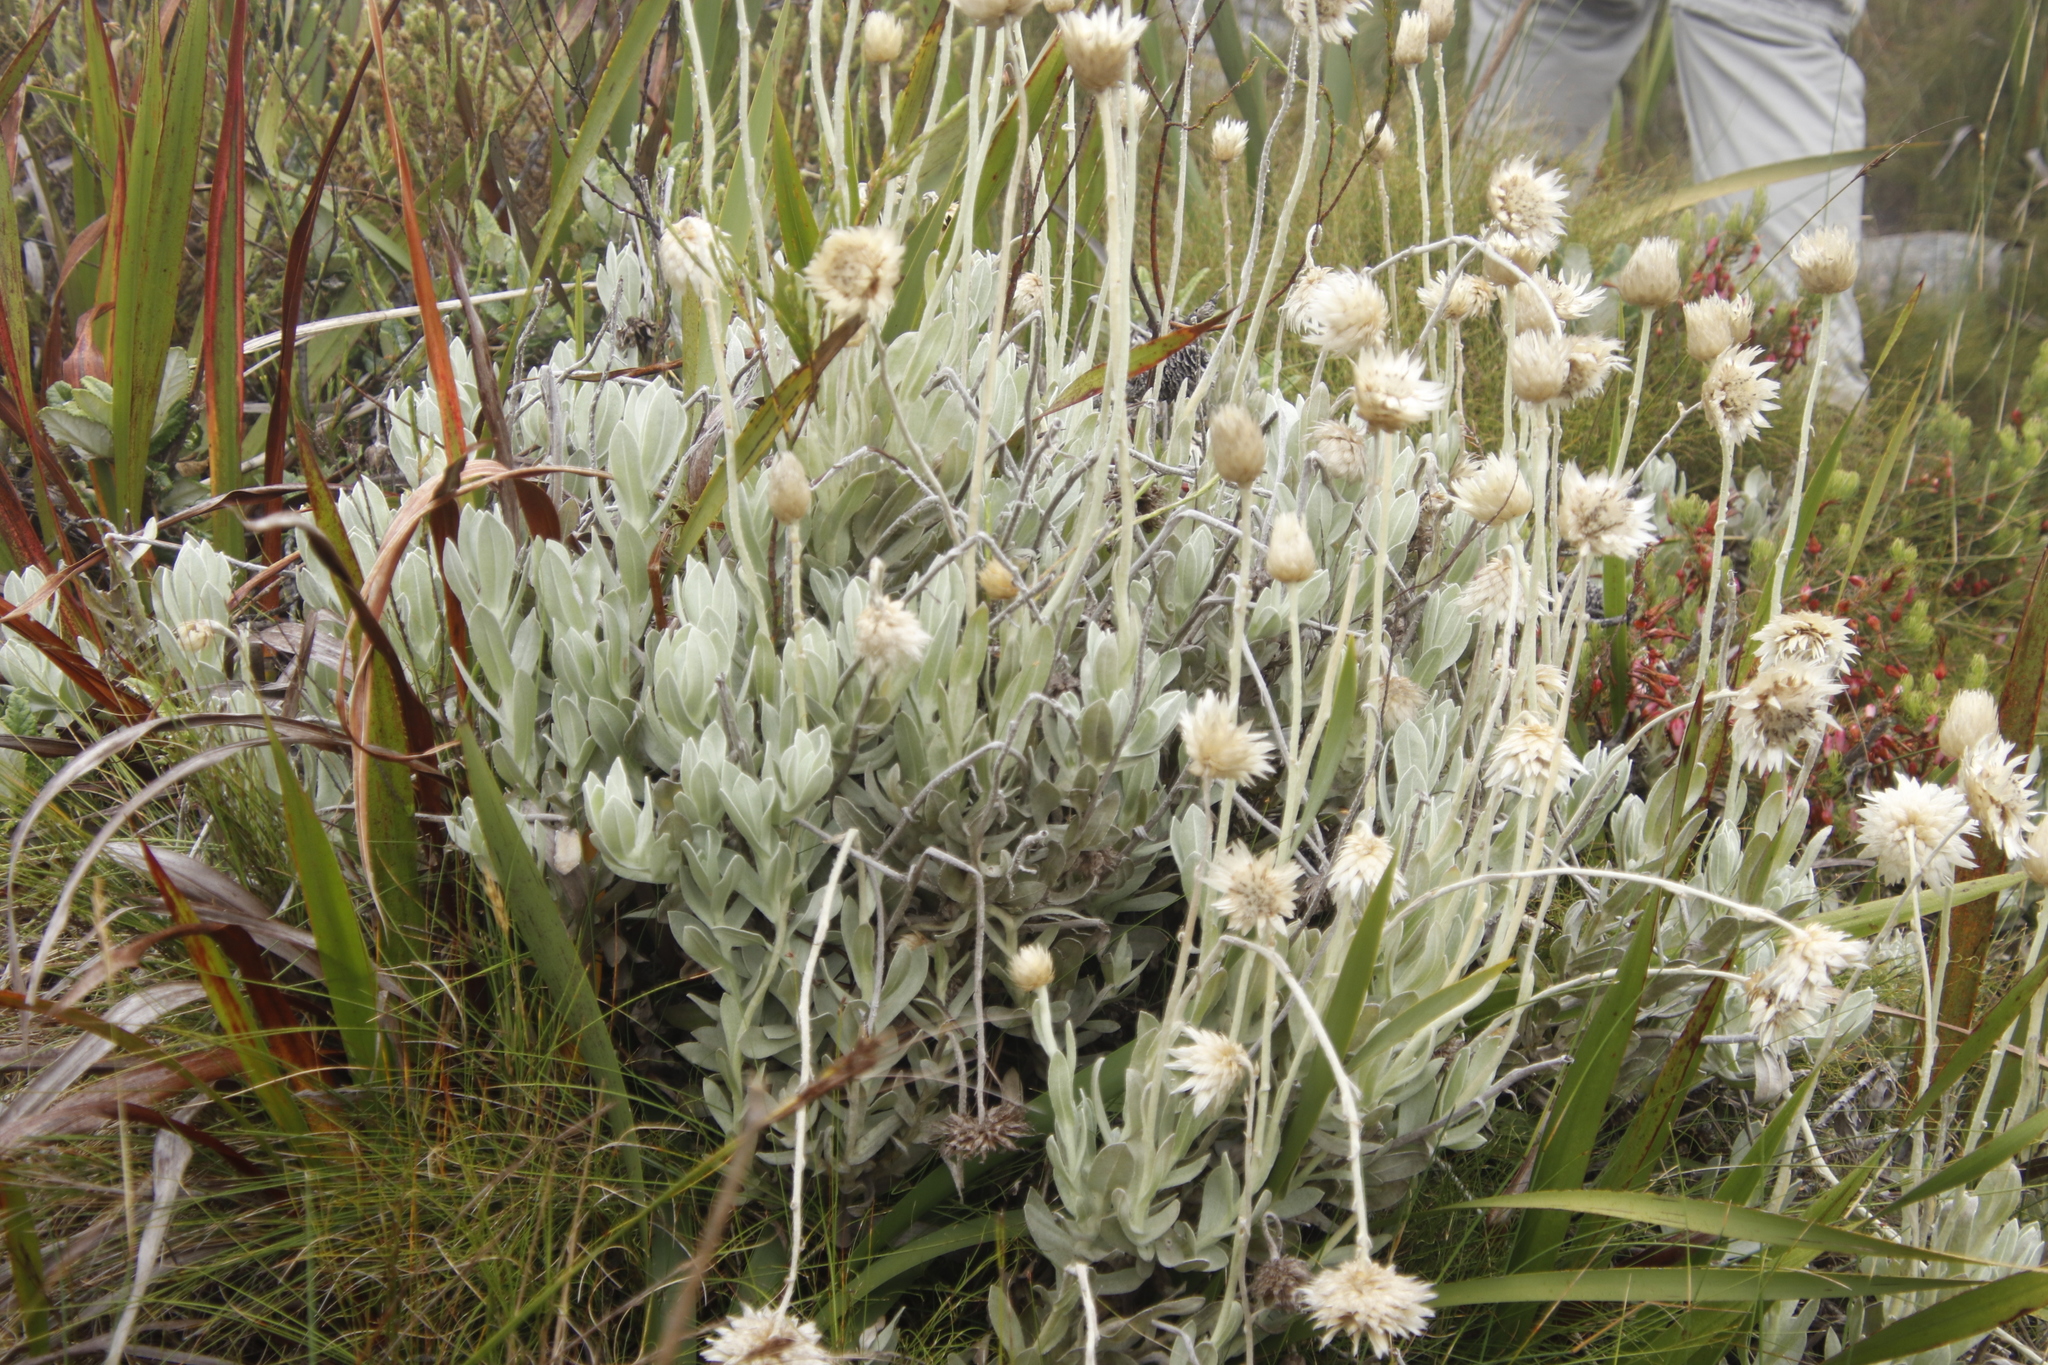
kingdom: Plantae
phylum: Tracheophyta
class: Magnoliopsida
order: Asterales
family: Asteraceae
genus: Syncarpha
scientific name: Syncarpha speciosissima
